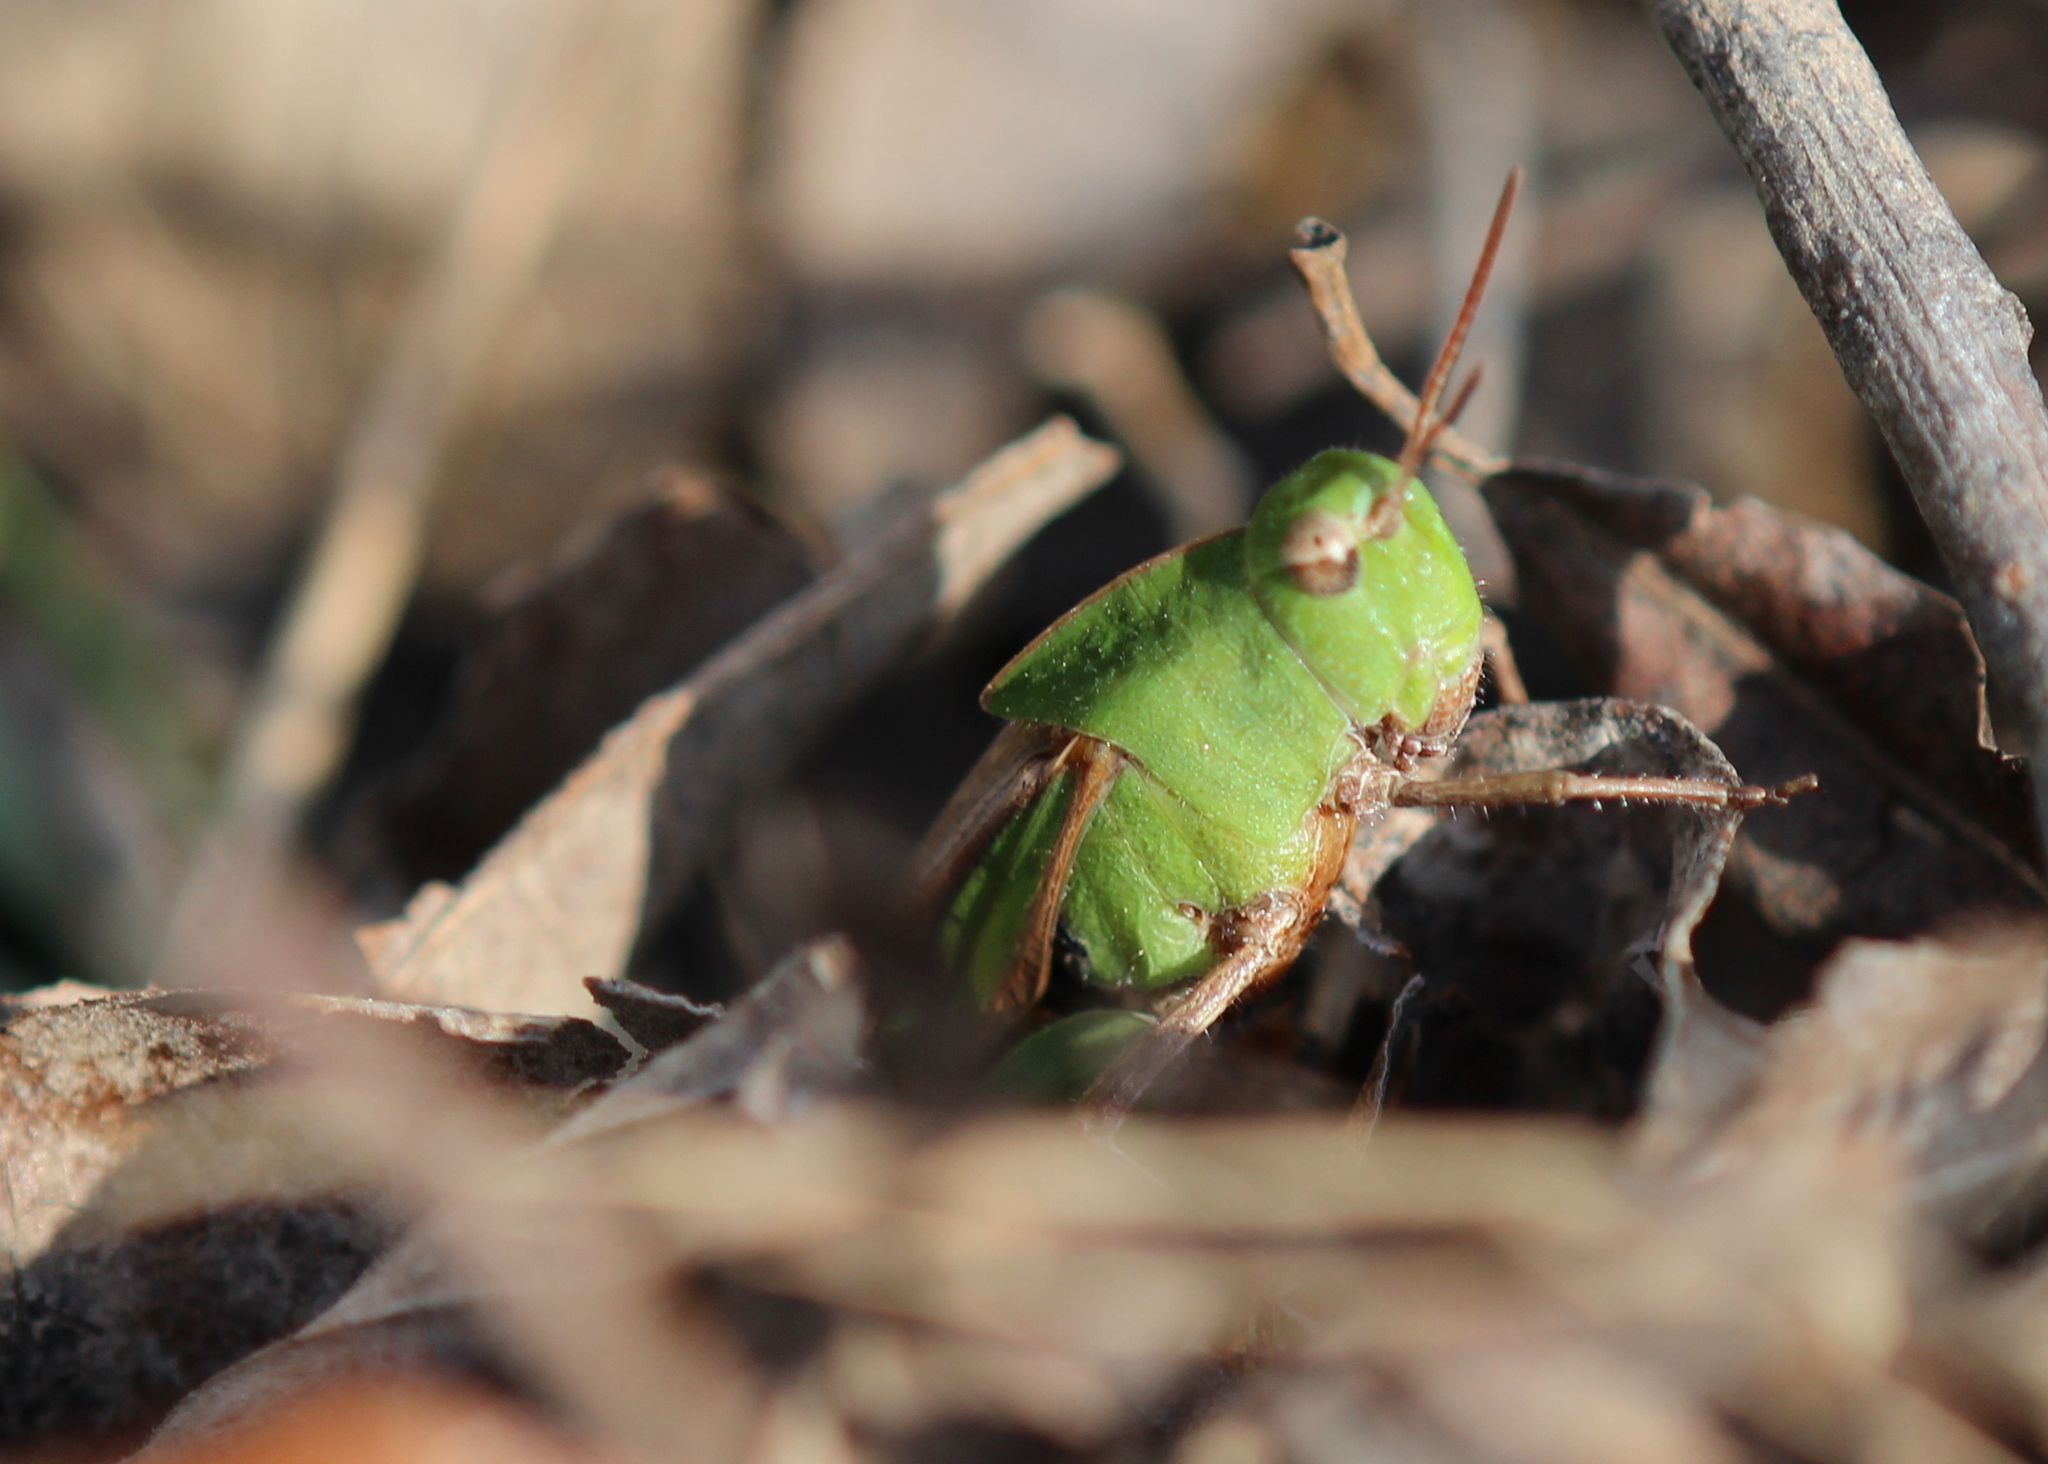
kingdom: Animalia
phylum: Arthropoda
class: Insecta
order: Orthoptera
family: Acrididae
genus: Chortophaga
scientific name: Chortophaga viridifasciata
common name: Green-striped grasshopper
